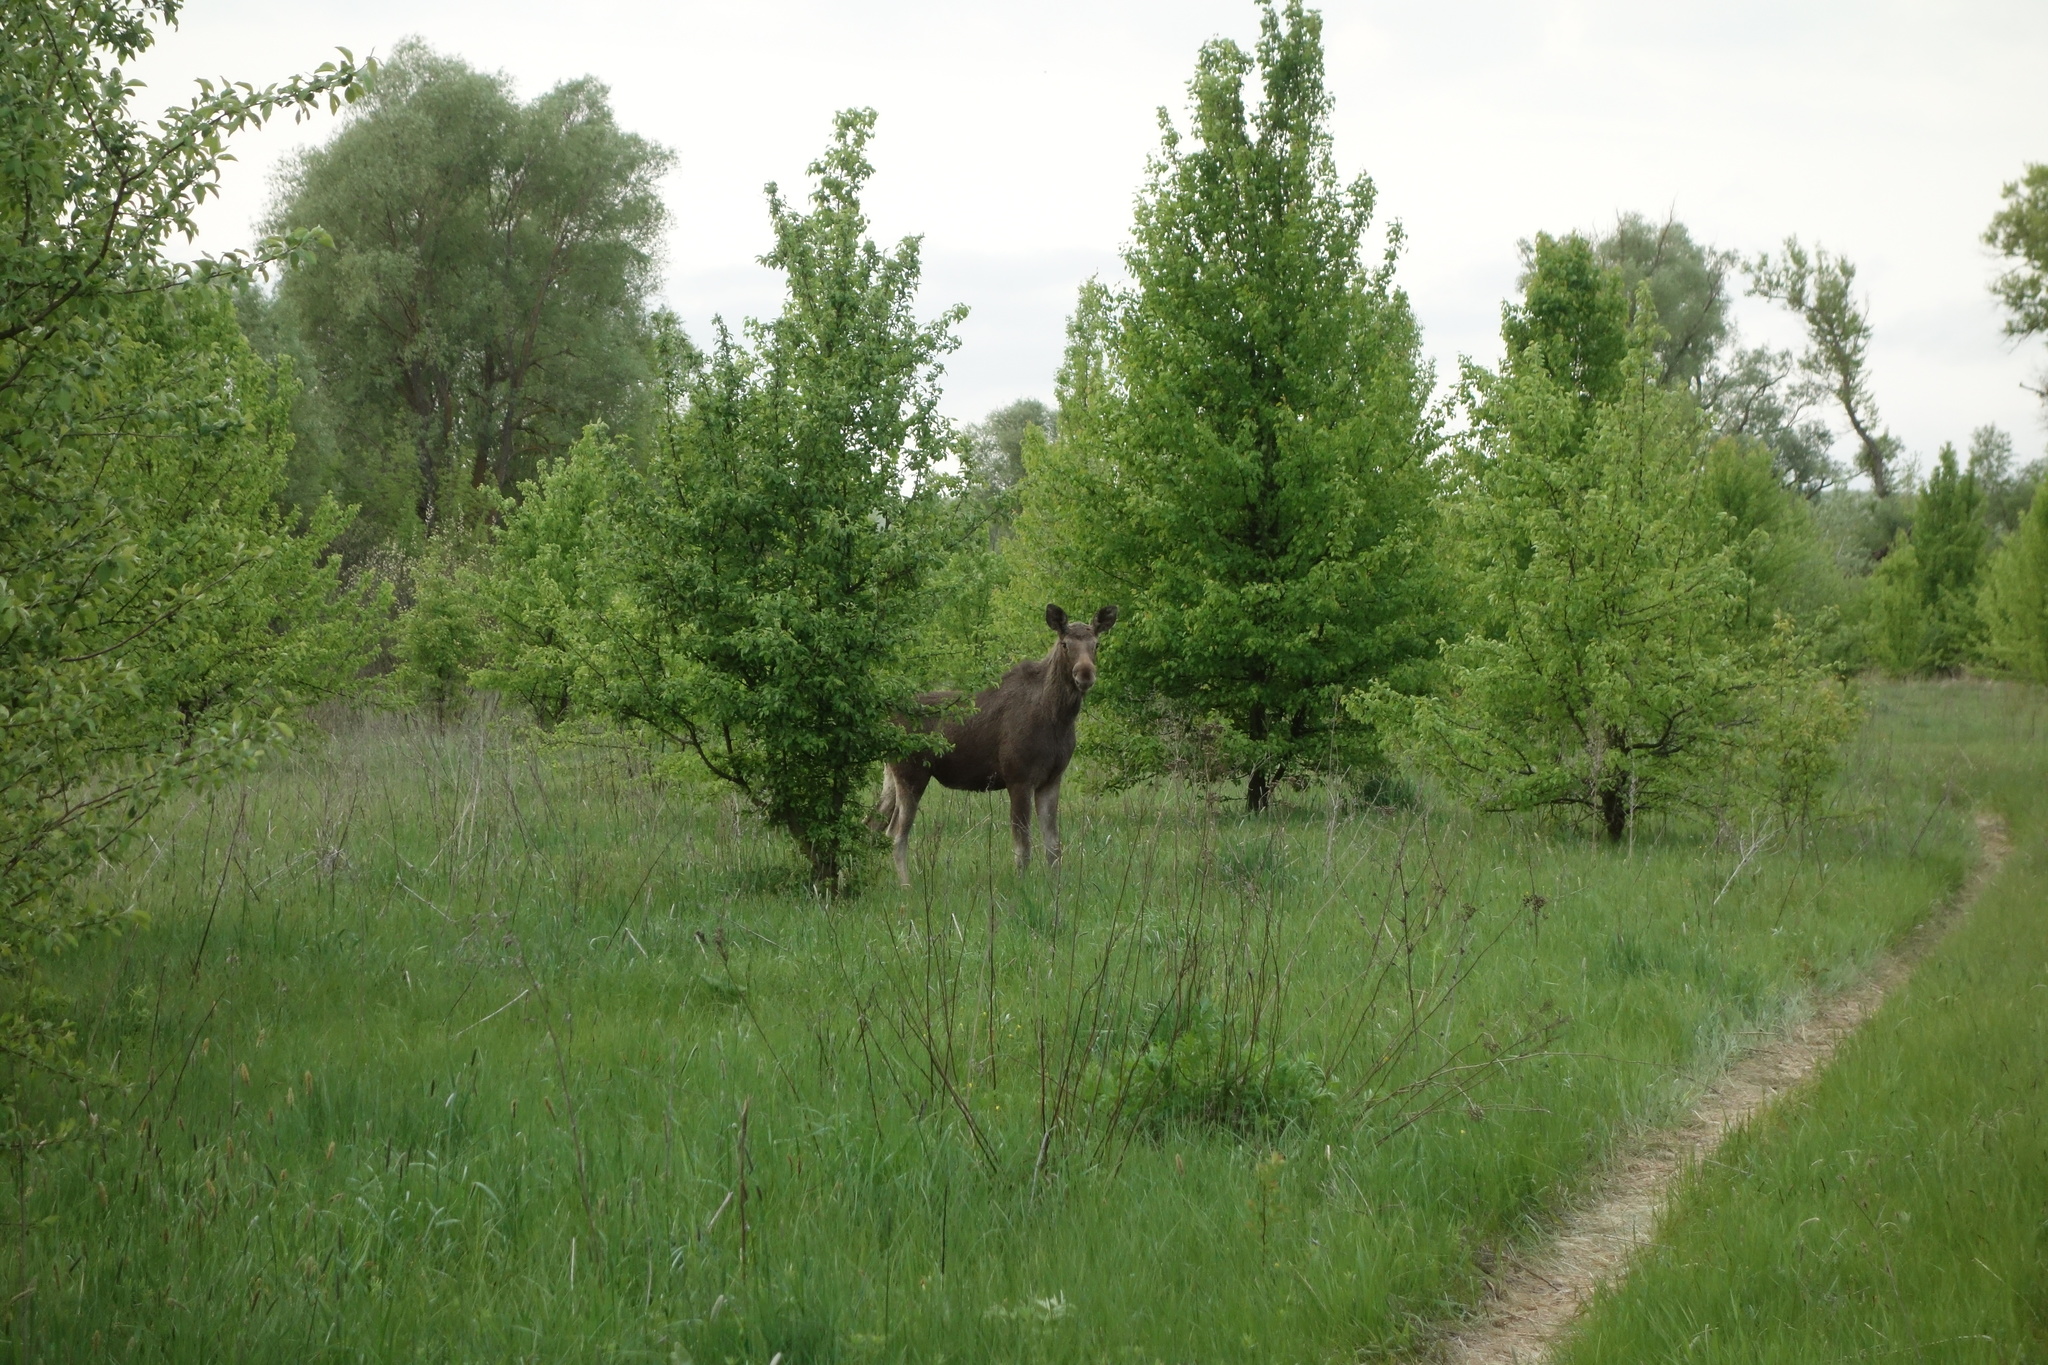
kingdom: Animalia
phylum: Chordata
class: Mammalia
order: Artiodactyla
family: Cervidae
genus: Alces
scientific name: Alces alces
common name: Moose
